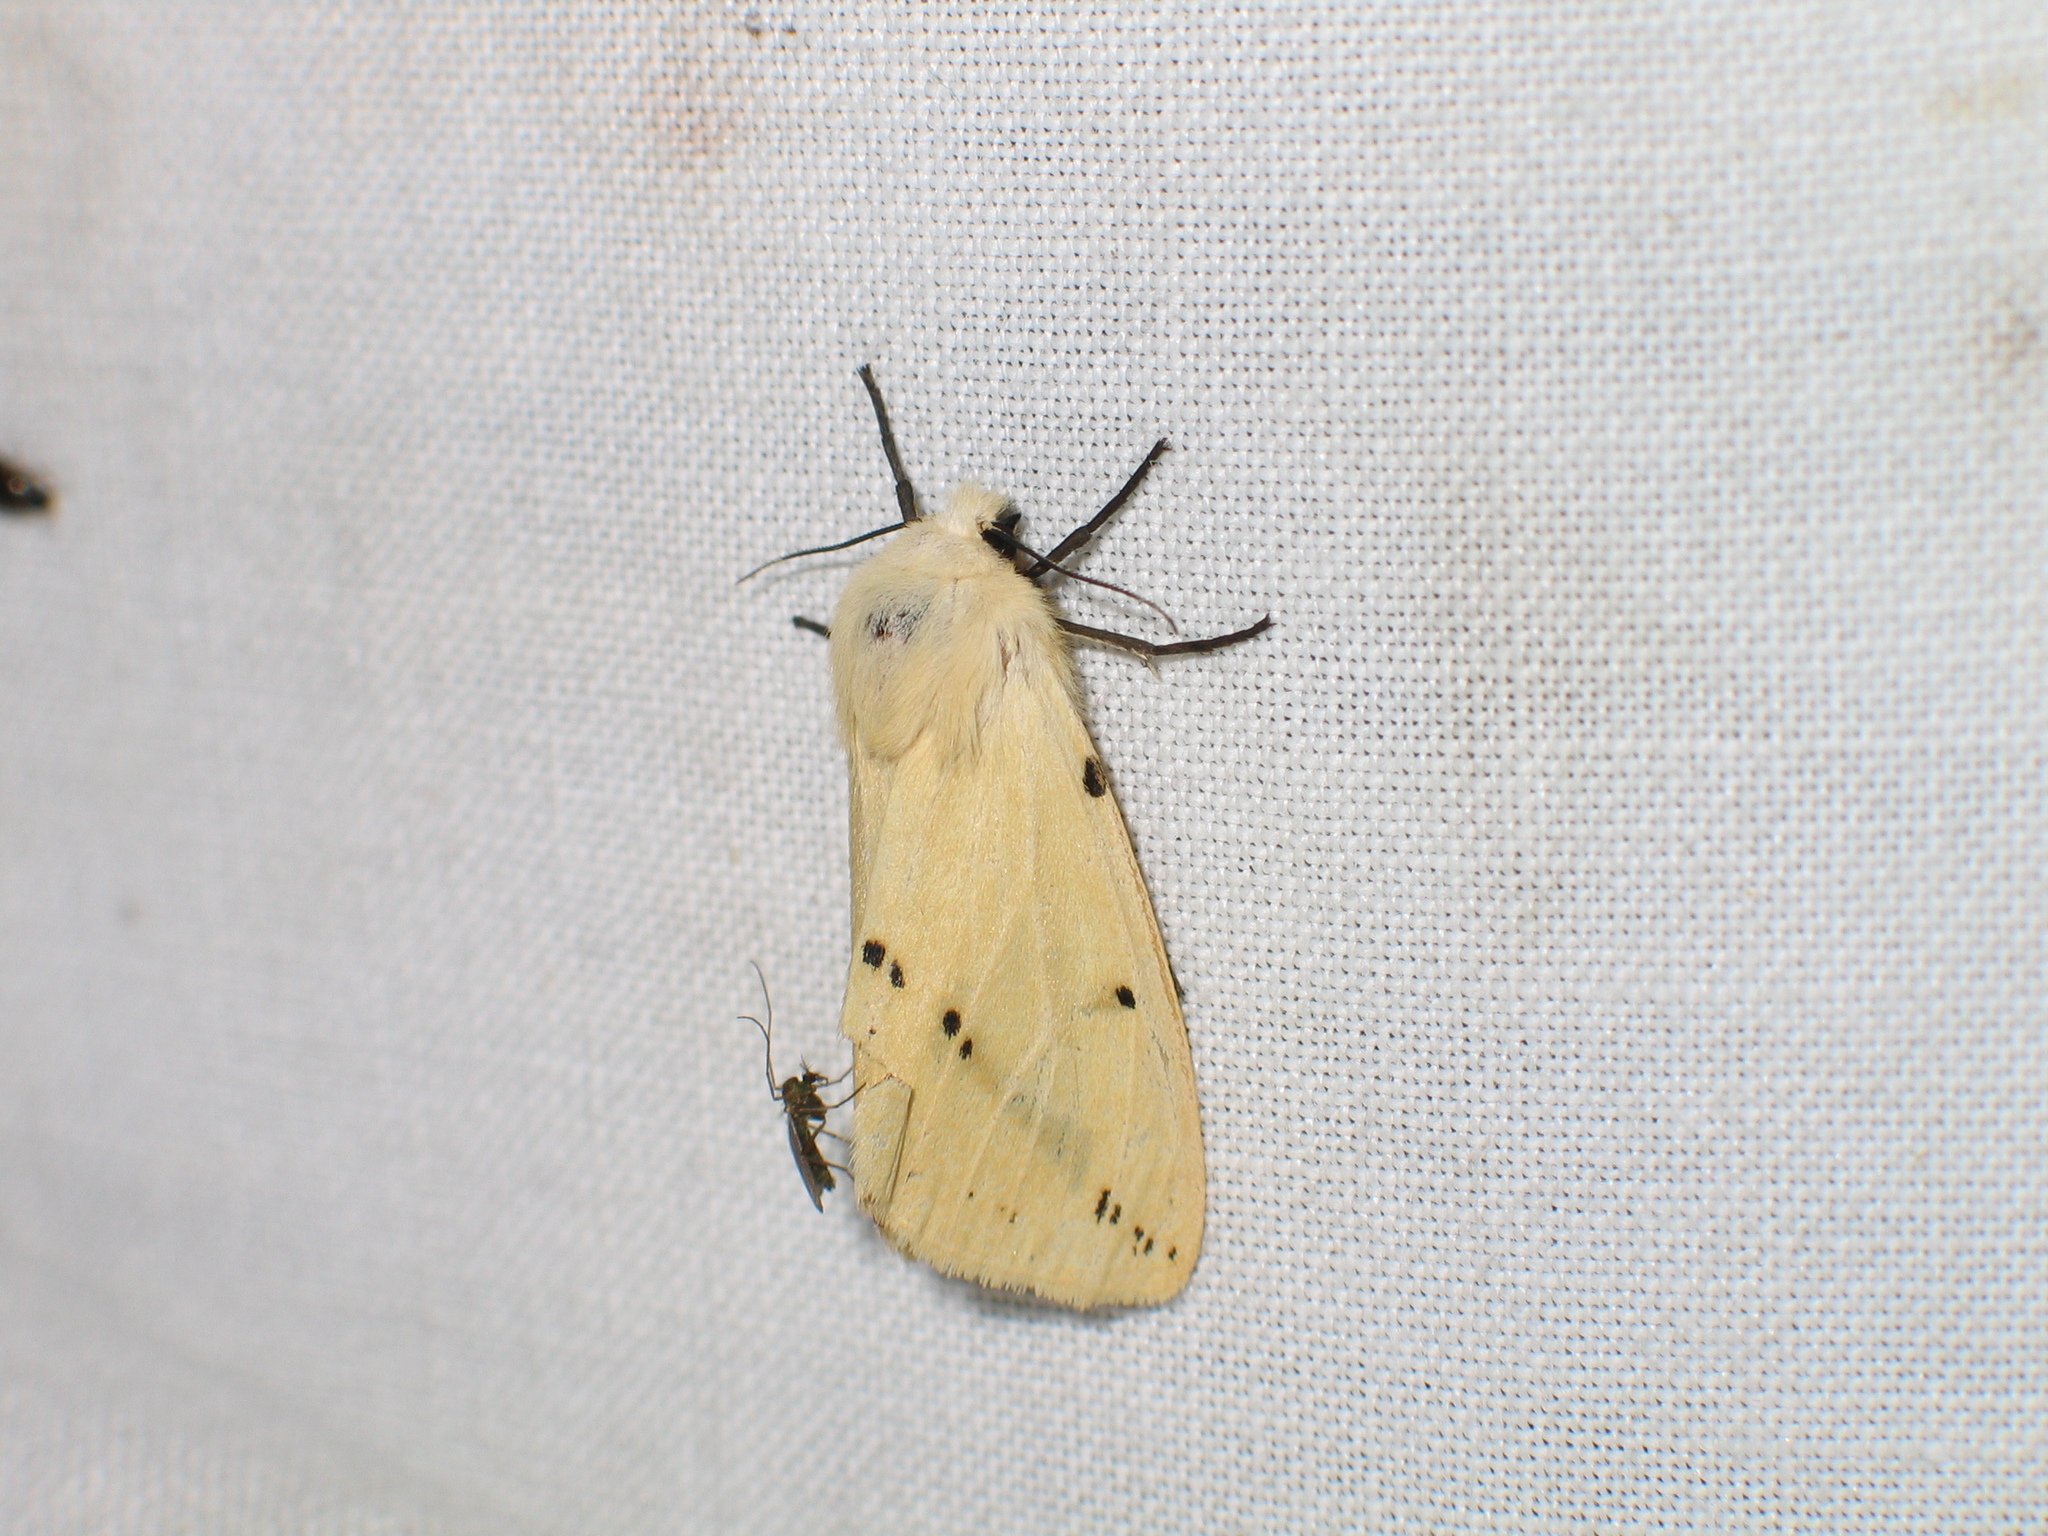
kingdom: Animalia
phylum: Arthropoda
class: Insecta
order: Lepidoptera
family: Erebidae
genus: Spilarctia
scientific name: Spilarctia lutea
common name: Buff ermine
